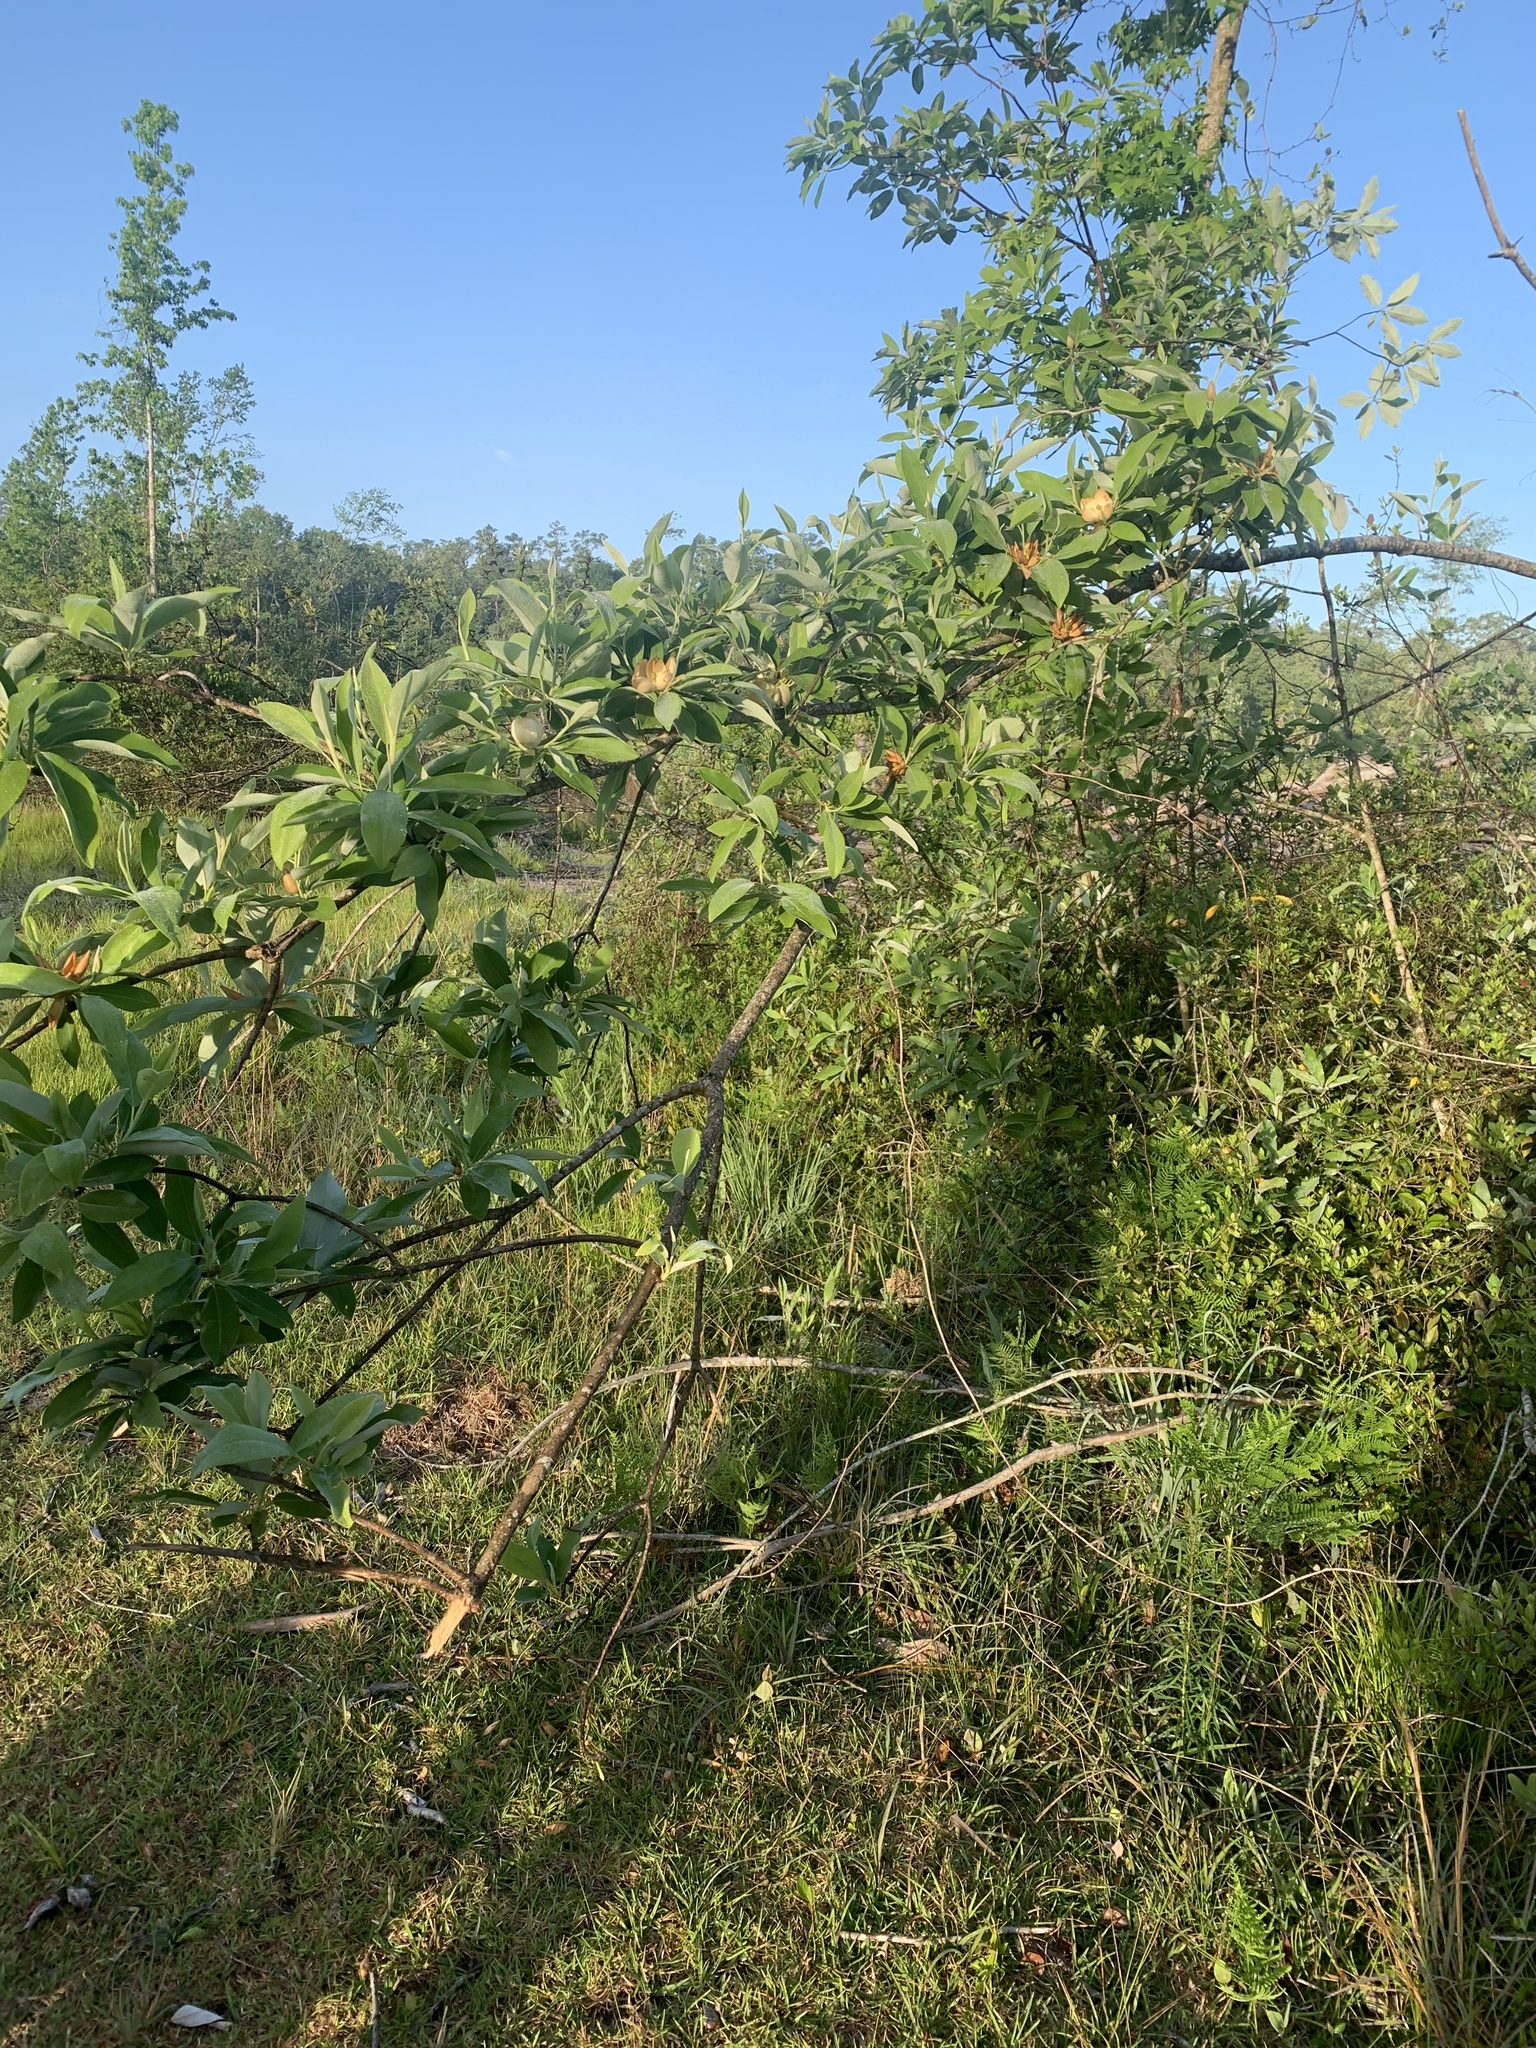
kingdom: Plantae
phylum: Tracheophyta
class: Magnoliopsida
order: Magnoliales
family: Magnoliaceae
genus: Magnolia
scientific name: Magnolia virginiana
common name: Swamp bay
